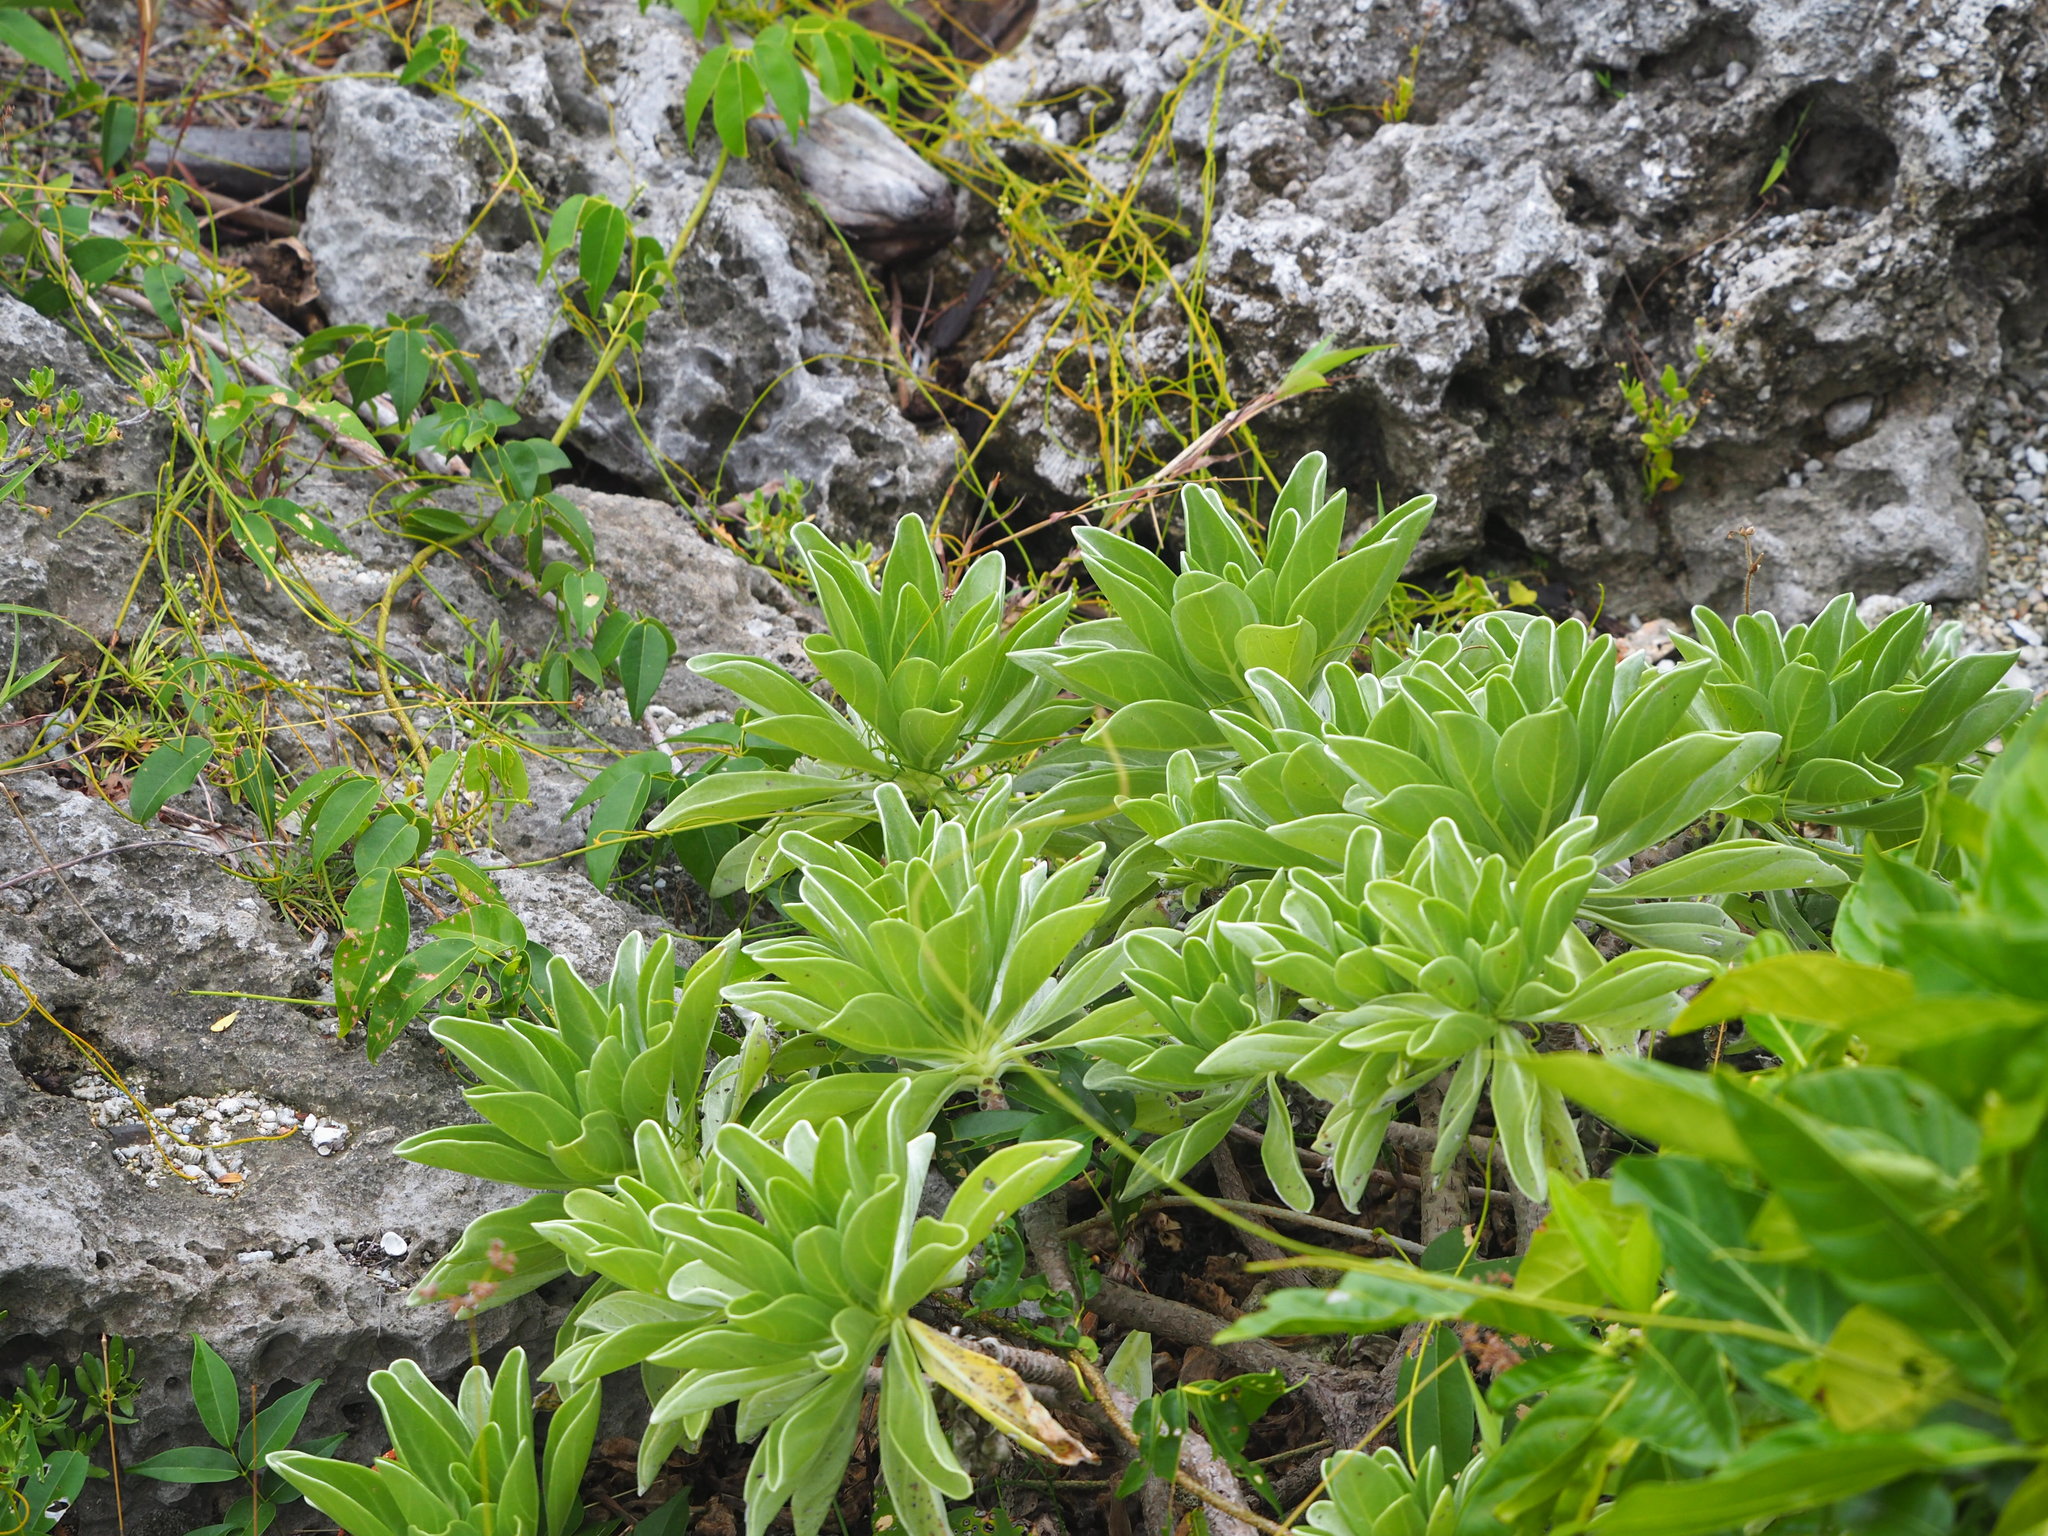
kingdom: Plantae
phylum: Tracheophyta
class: Magnoliopsida
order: Boraginales
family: Heliotropiaceae
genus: Heliotropium
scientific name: Heliotropium velutinum
